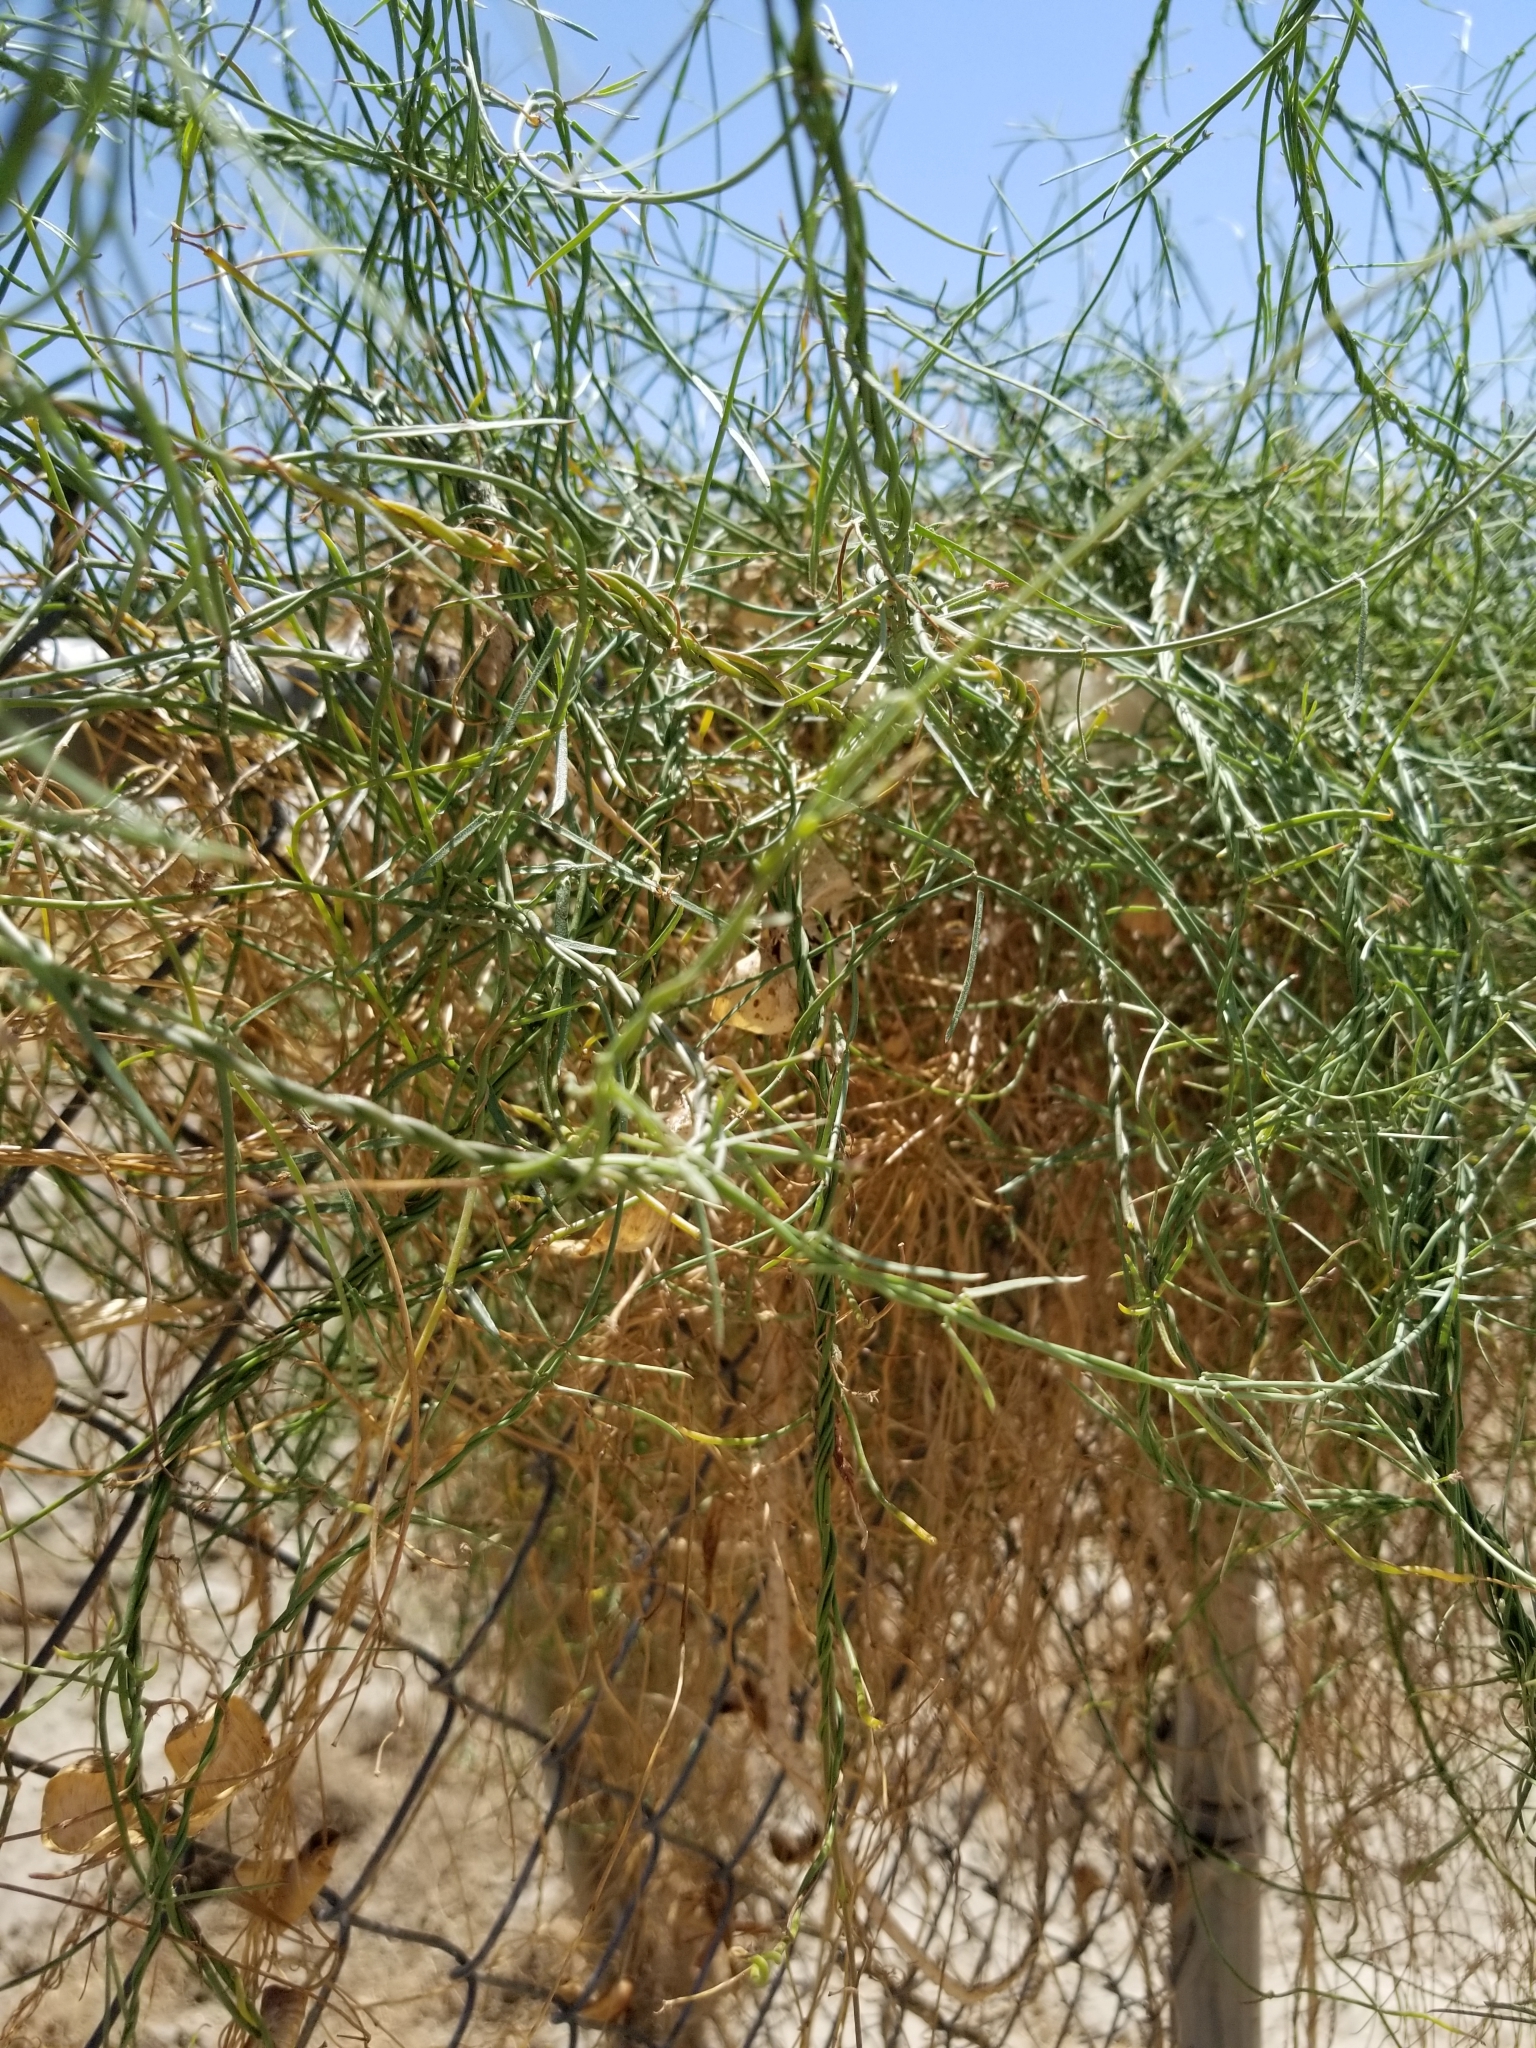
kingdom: Plantae
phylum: Tracheophyta
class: Magnoliopsida
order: Gentianales
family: Apocynaceae
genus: Funastrum
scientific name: Funastrum heterophyllum
